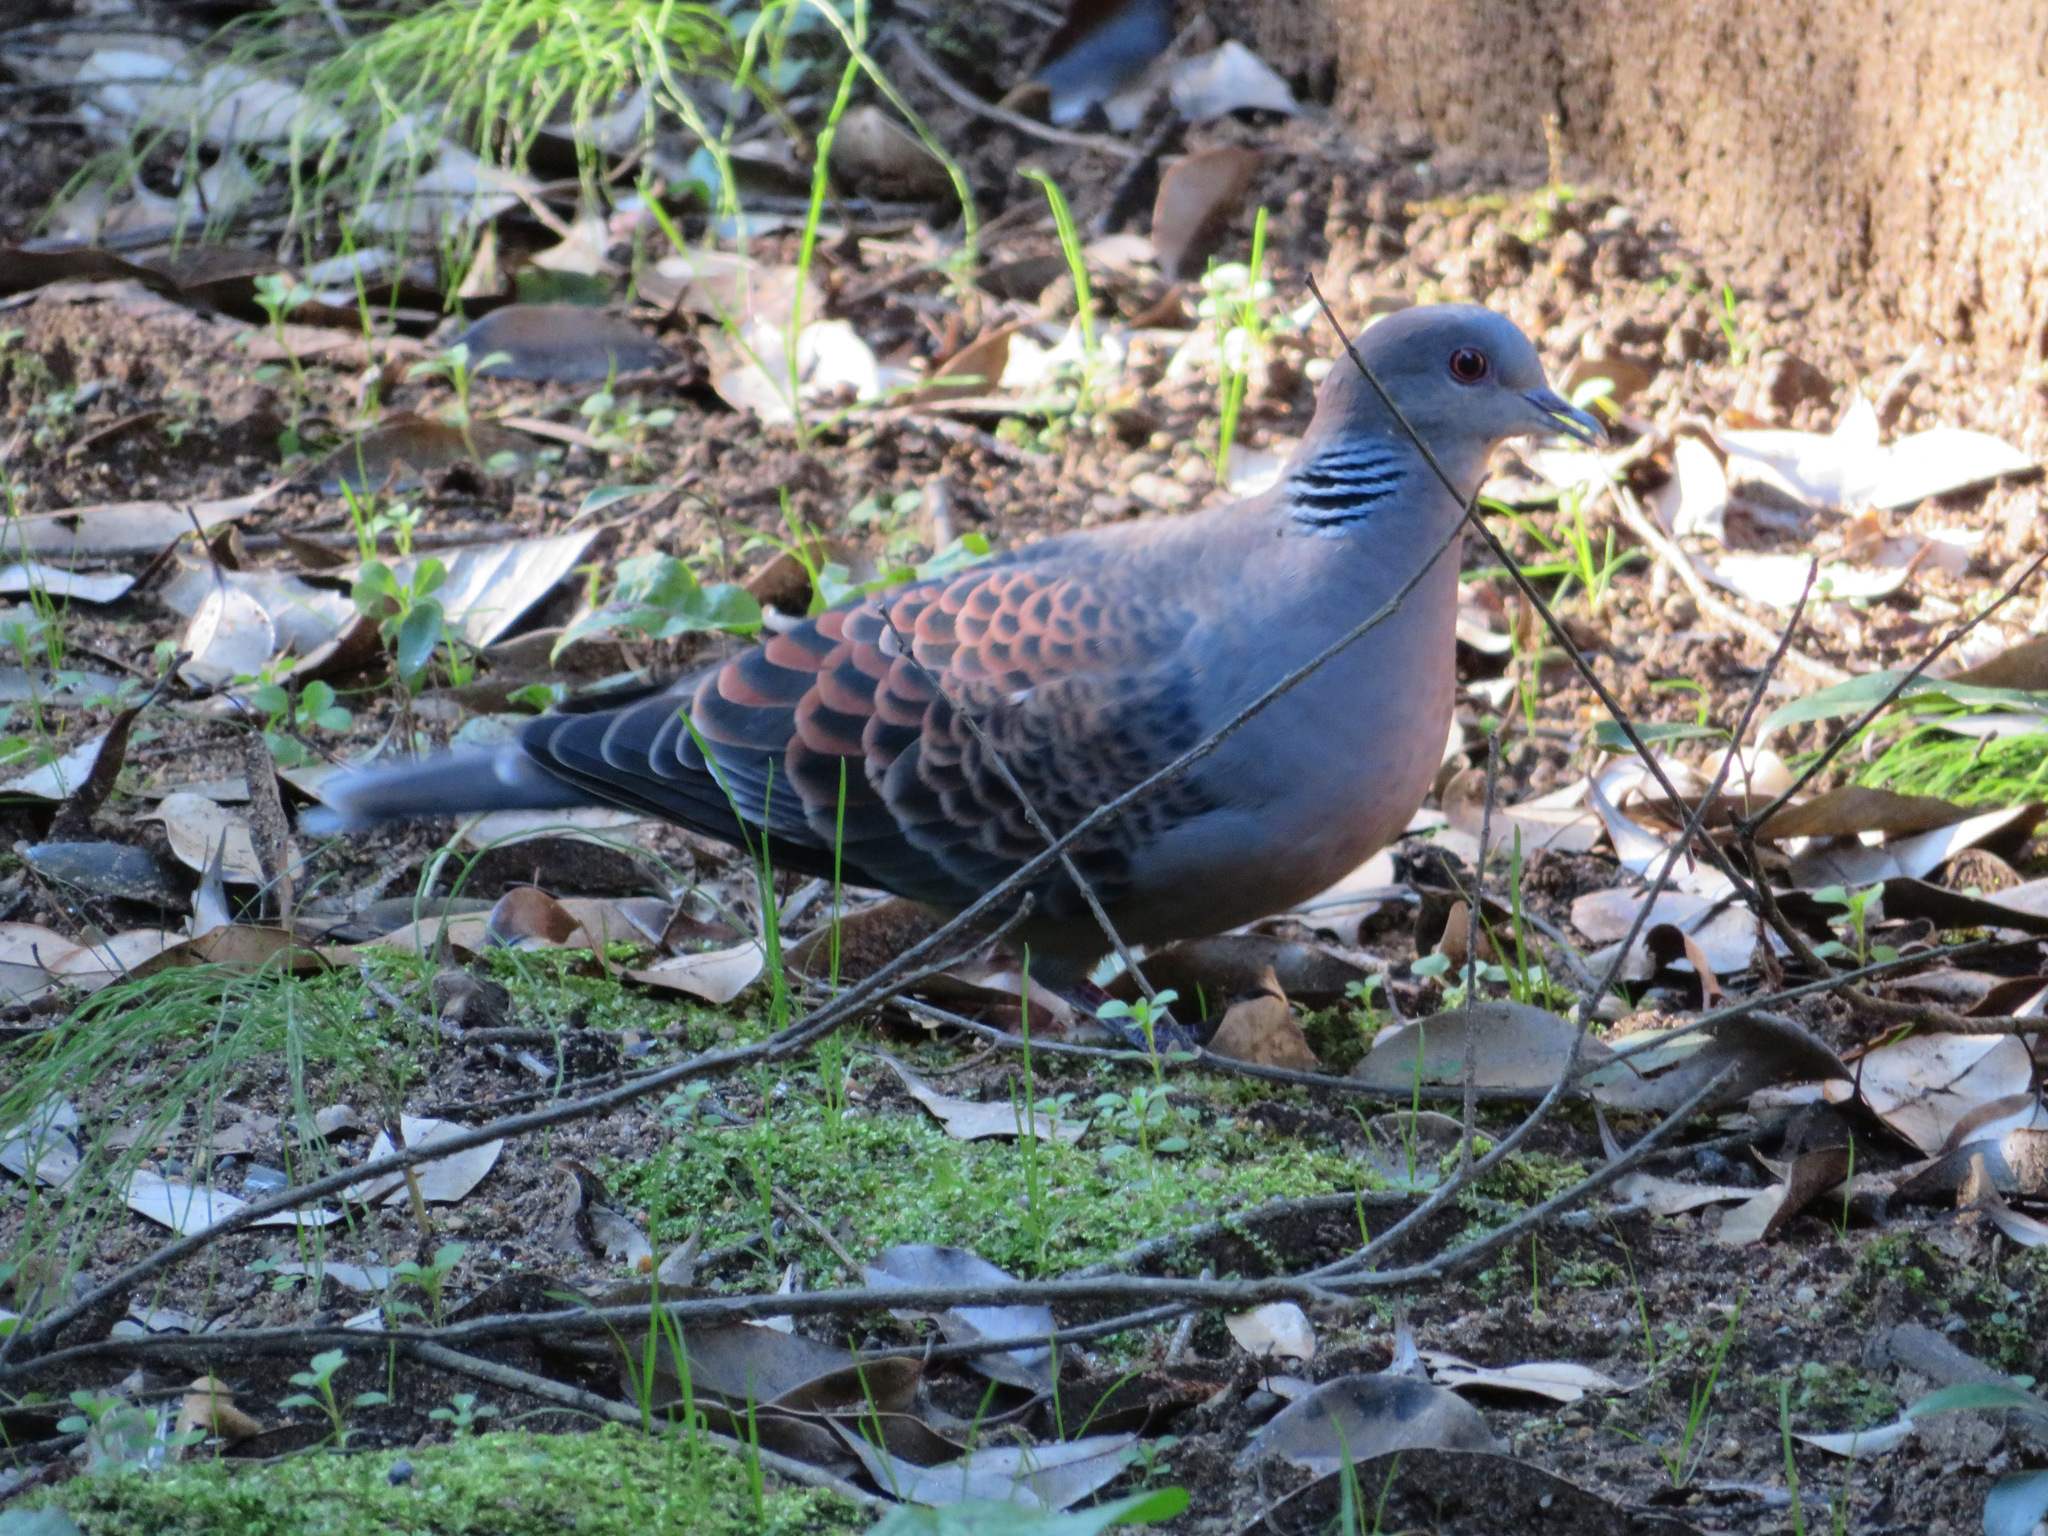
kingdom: Animalia
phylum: Chordata
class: Aves
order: Columbiformes
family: Columbidae
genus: Streptopelia
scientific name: Streptopelia orientalis
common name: Oriental turtle dove
